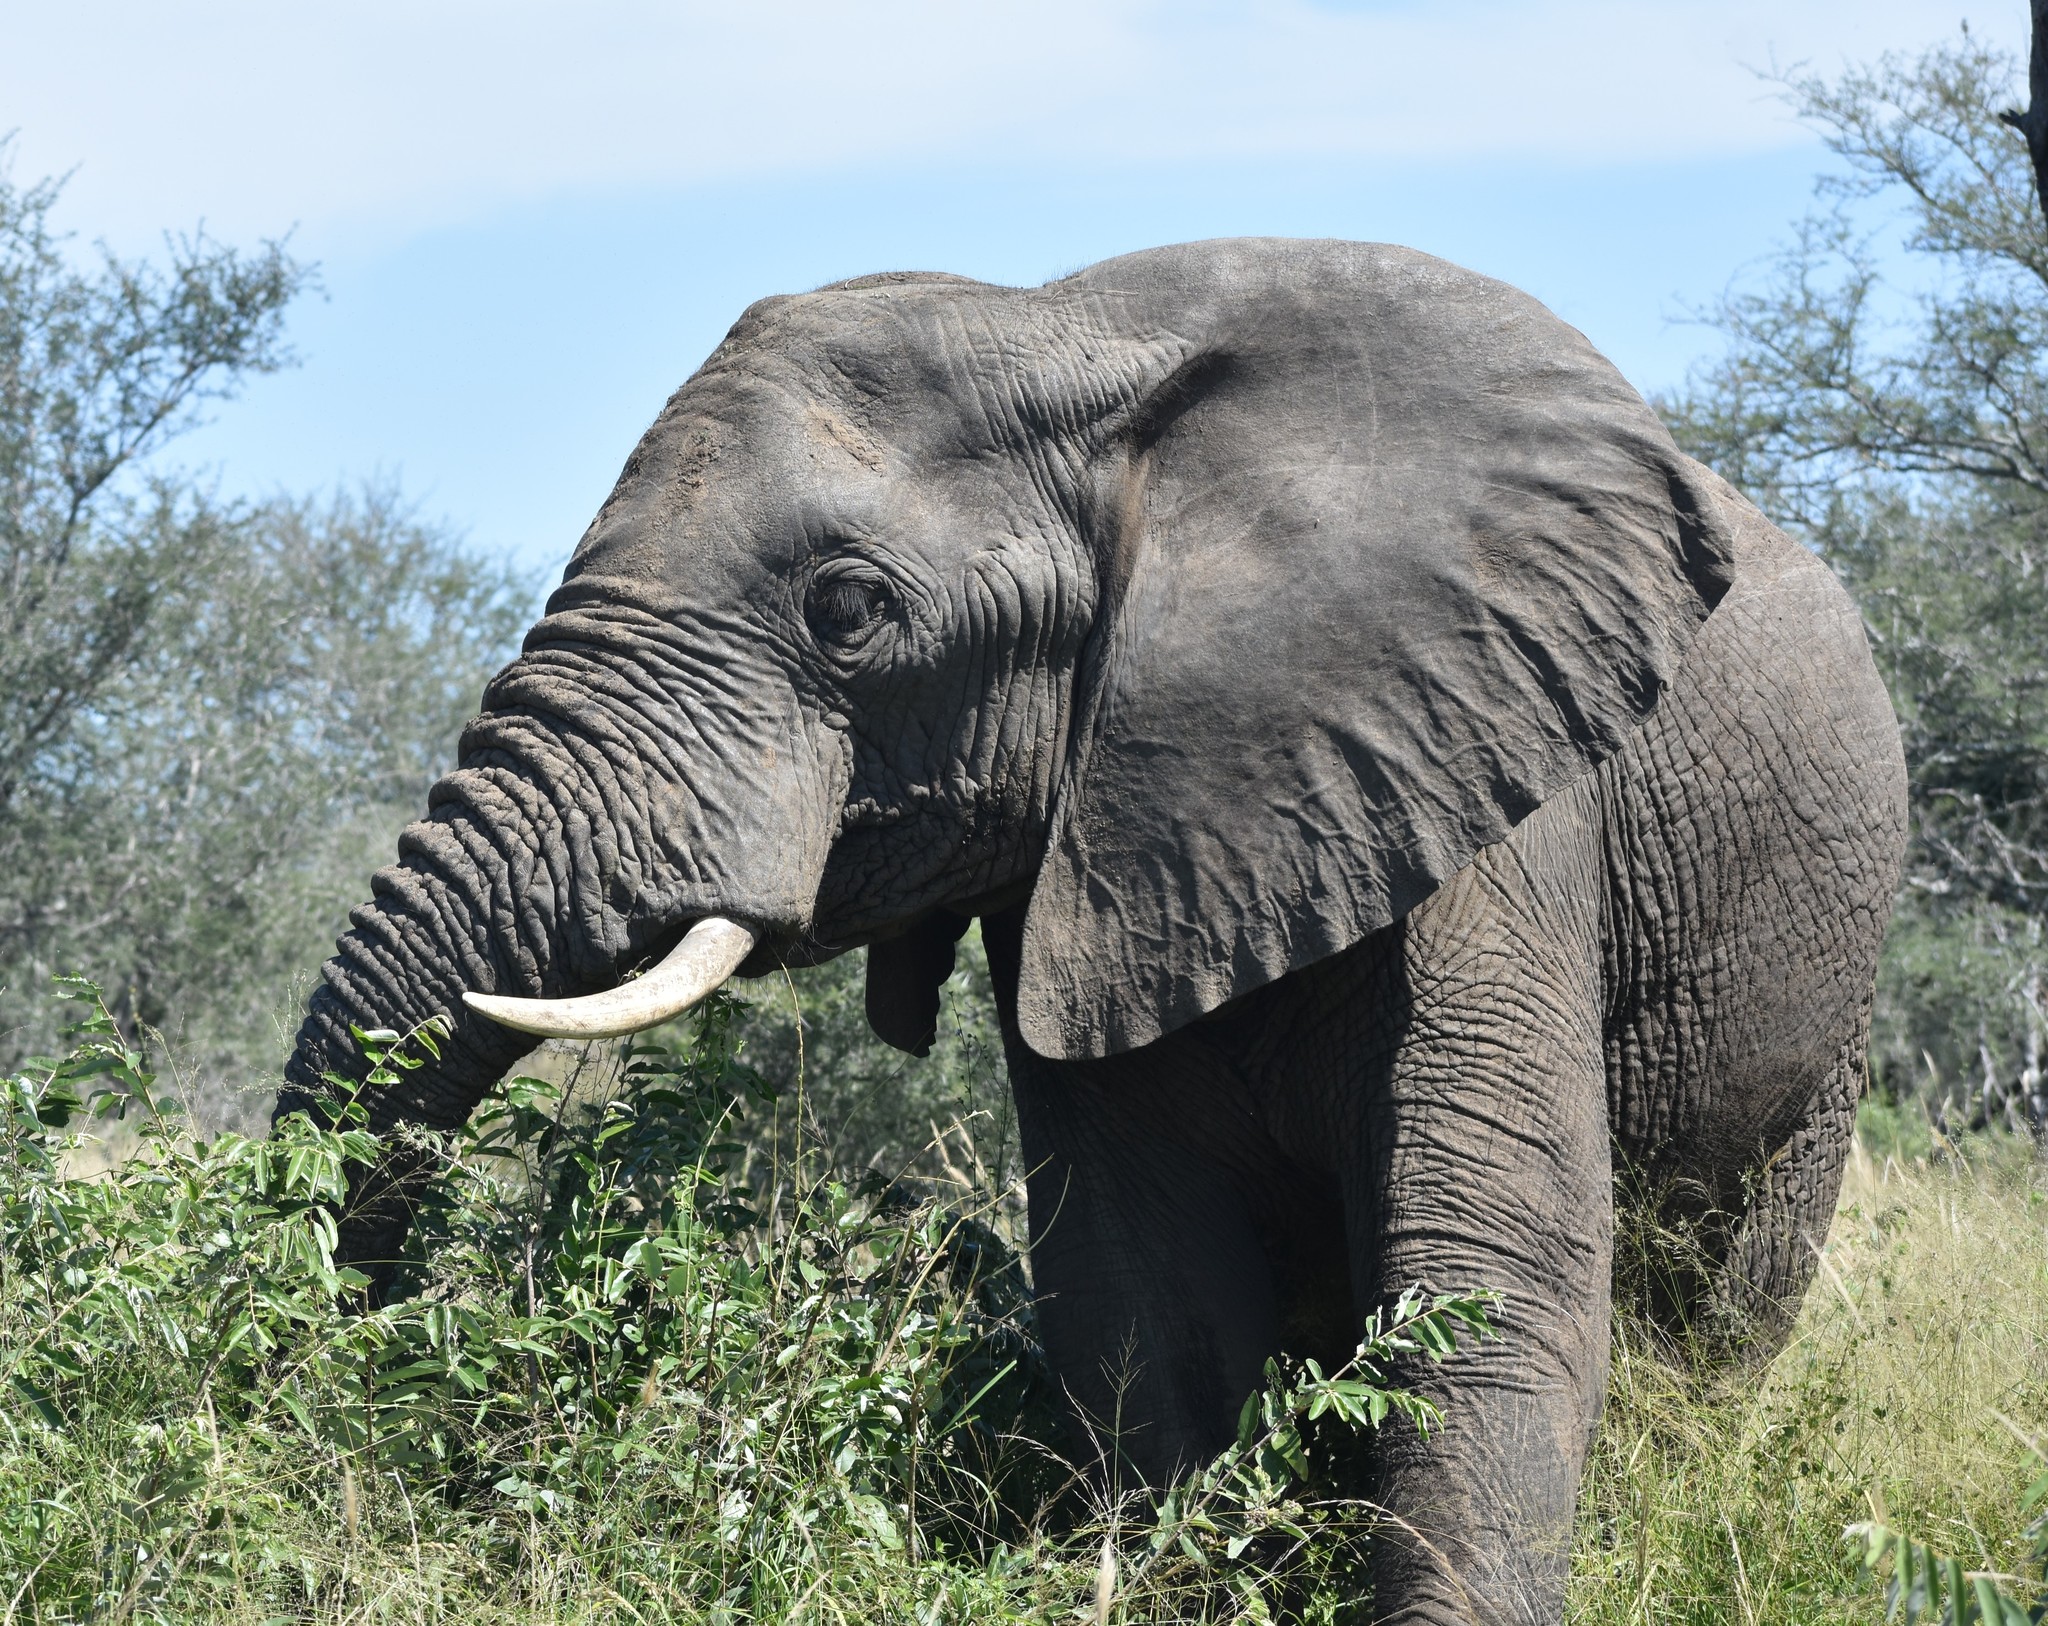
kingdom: Animalia
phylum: Chordata
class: Mammalia
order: Proboscidea
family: Elephantidae
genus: Loxodonta
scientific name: Loxodonta africana
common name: African elephant
